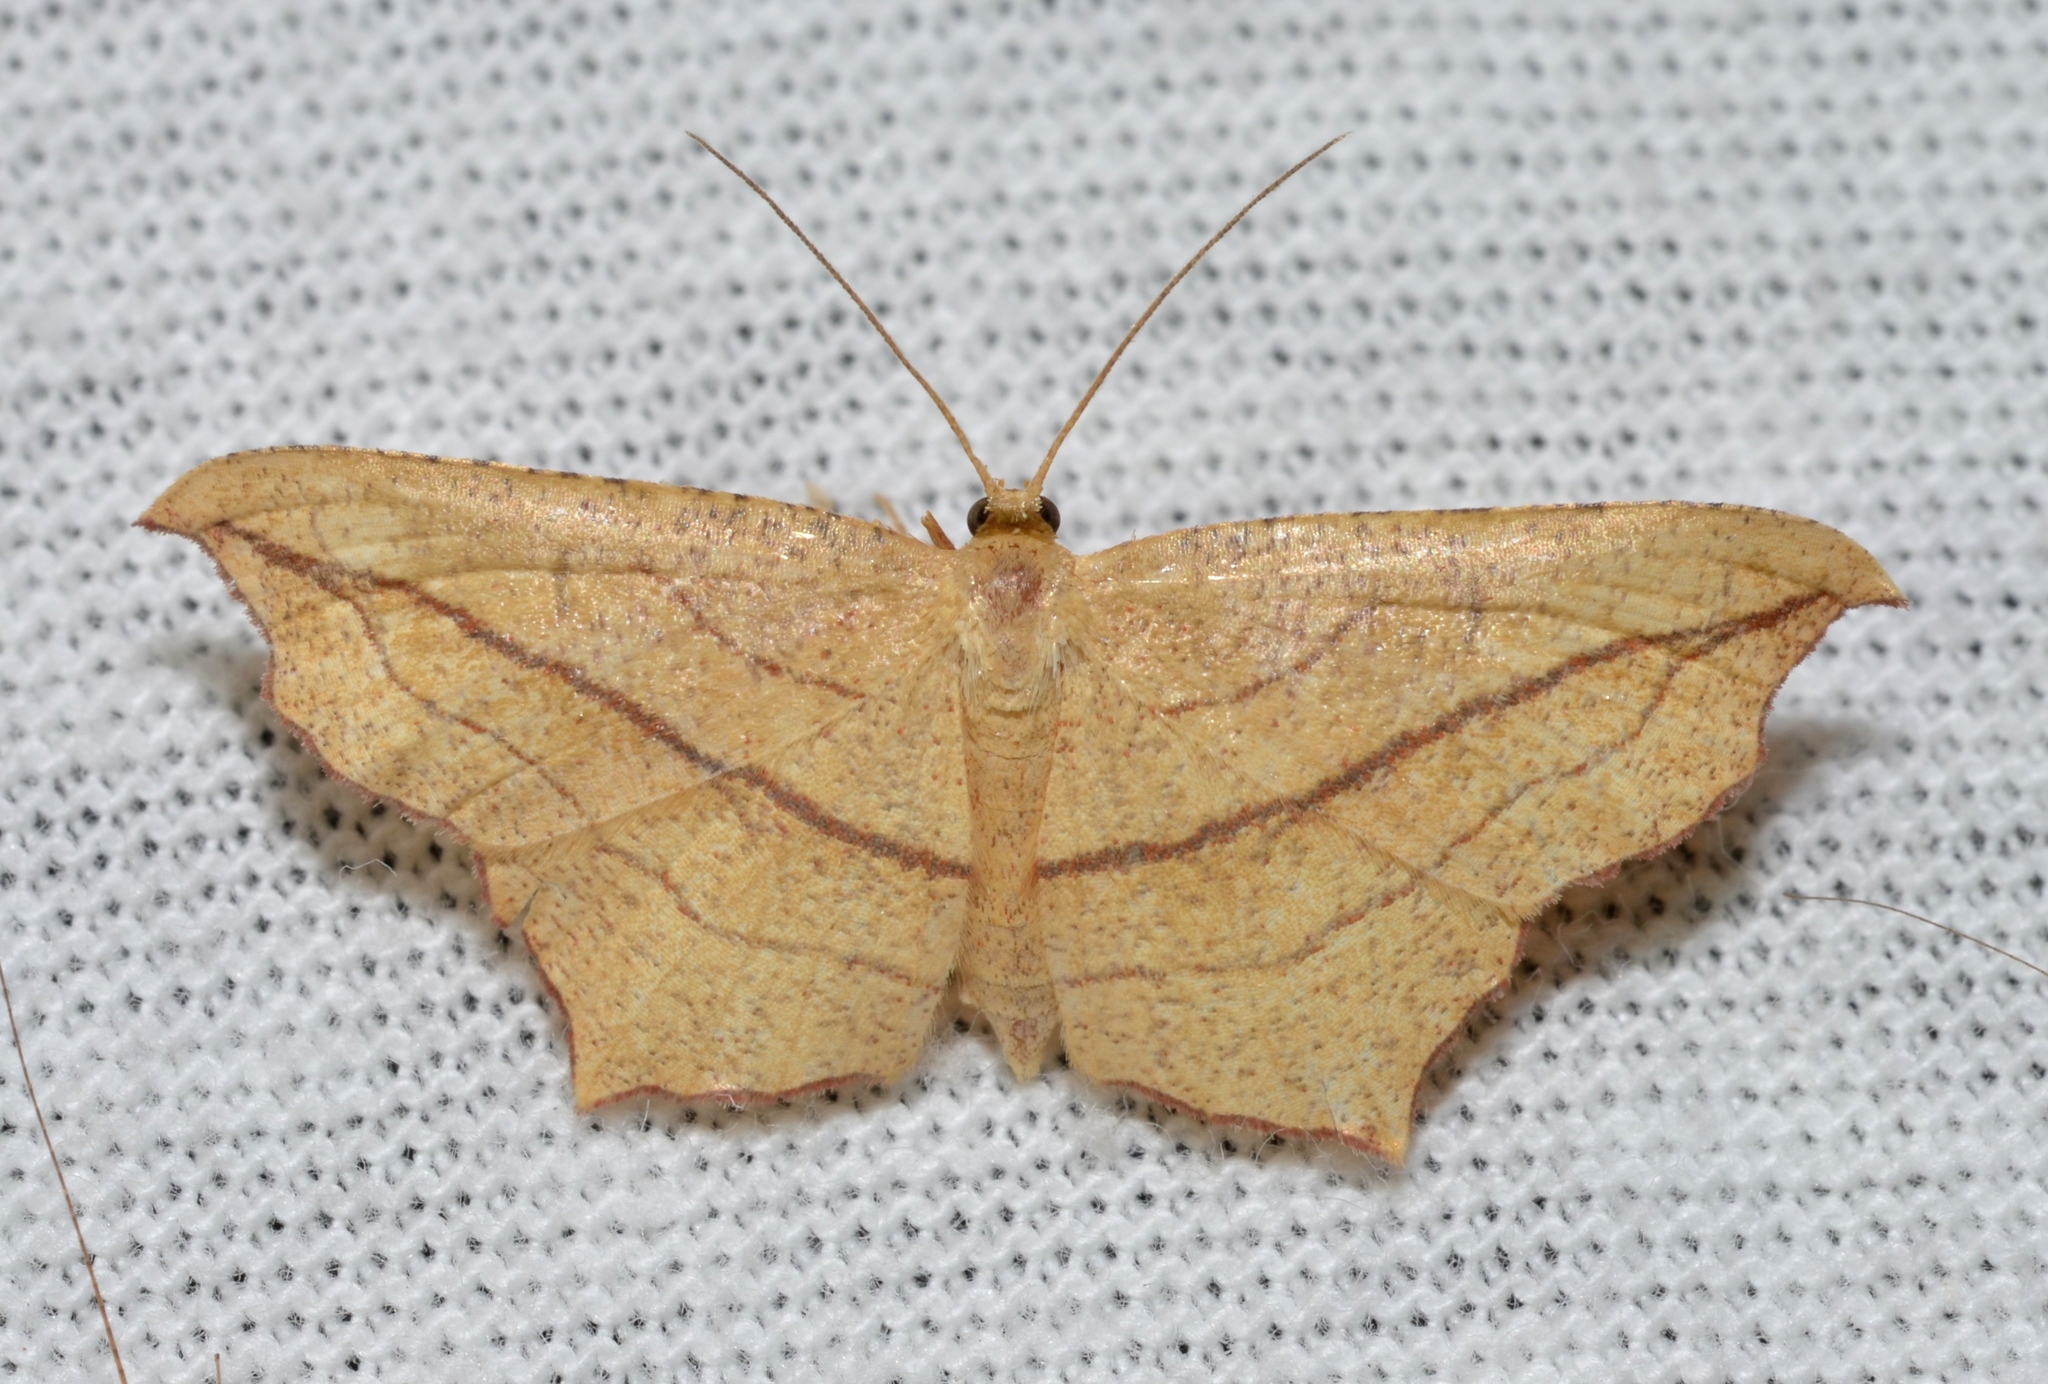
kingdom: Animalia
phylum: Arthropoda
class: Insecta
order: Lepidoptera
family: Geometridae
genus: Timandra
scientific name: Timandra amaturaria
